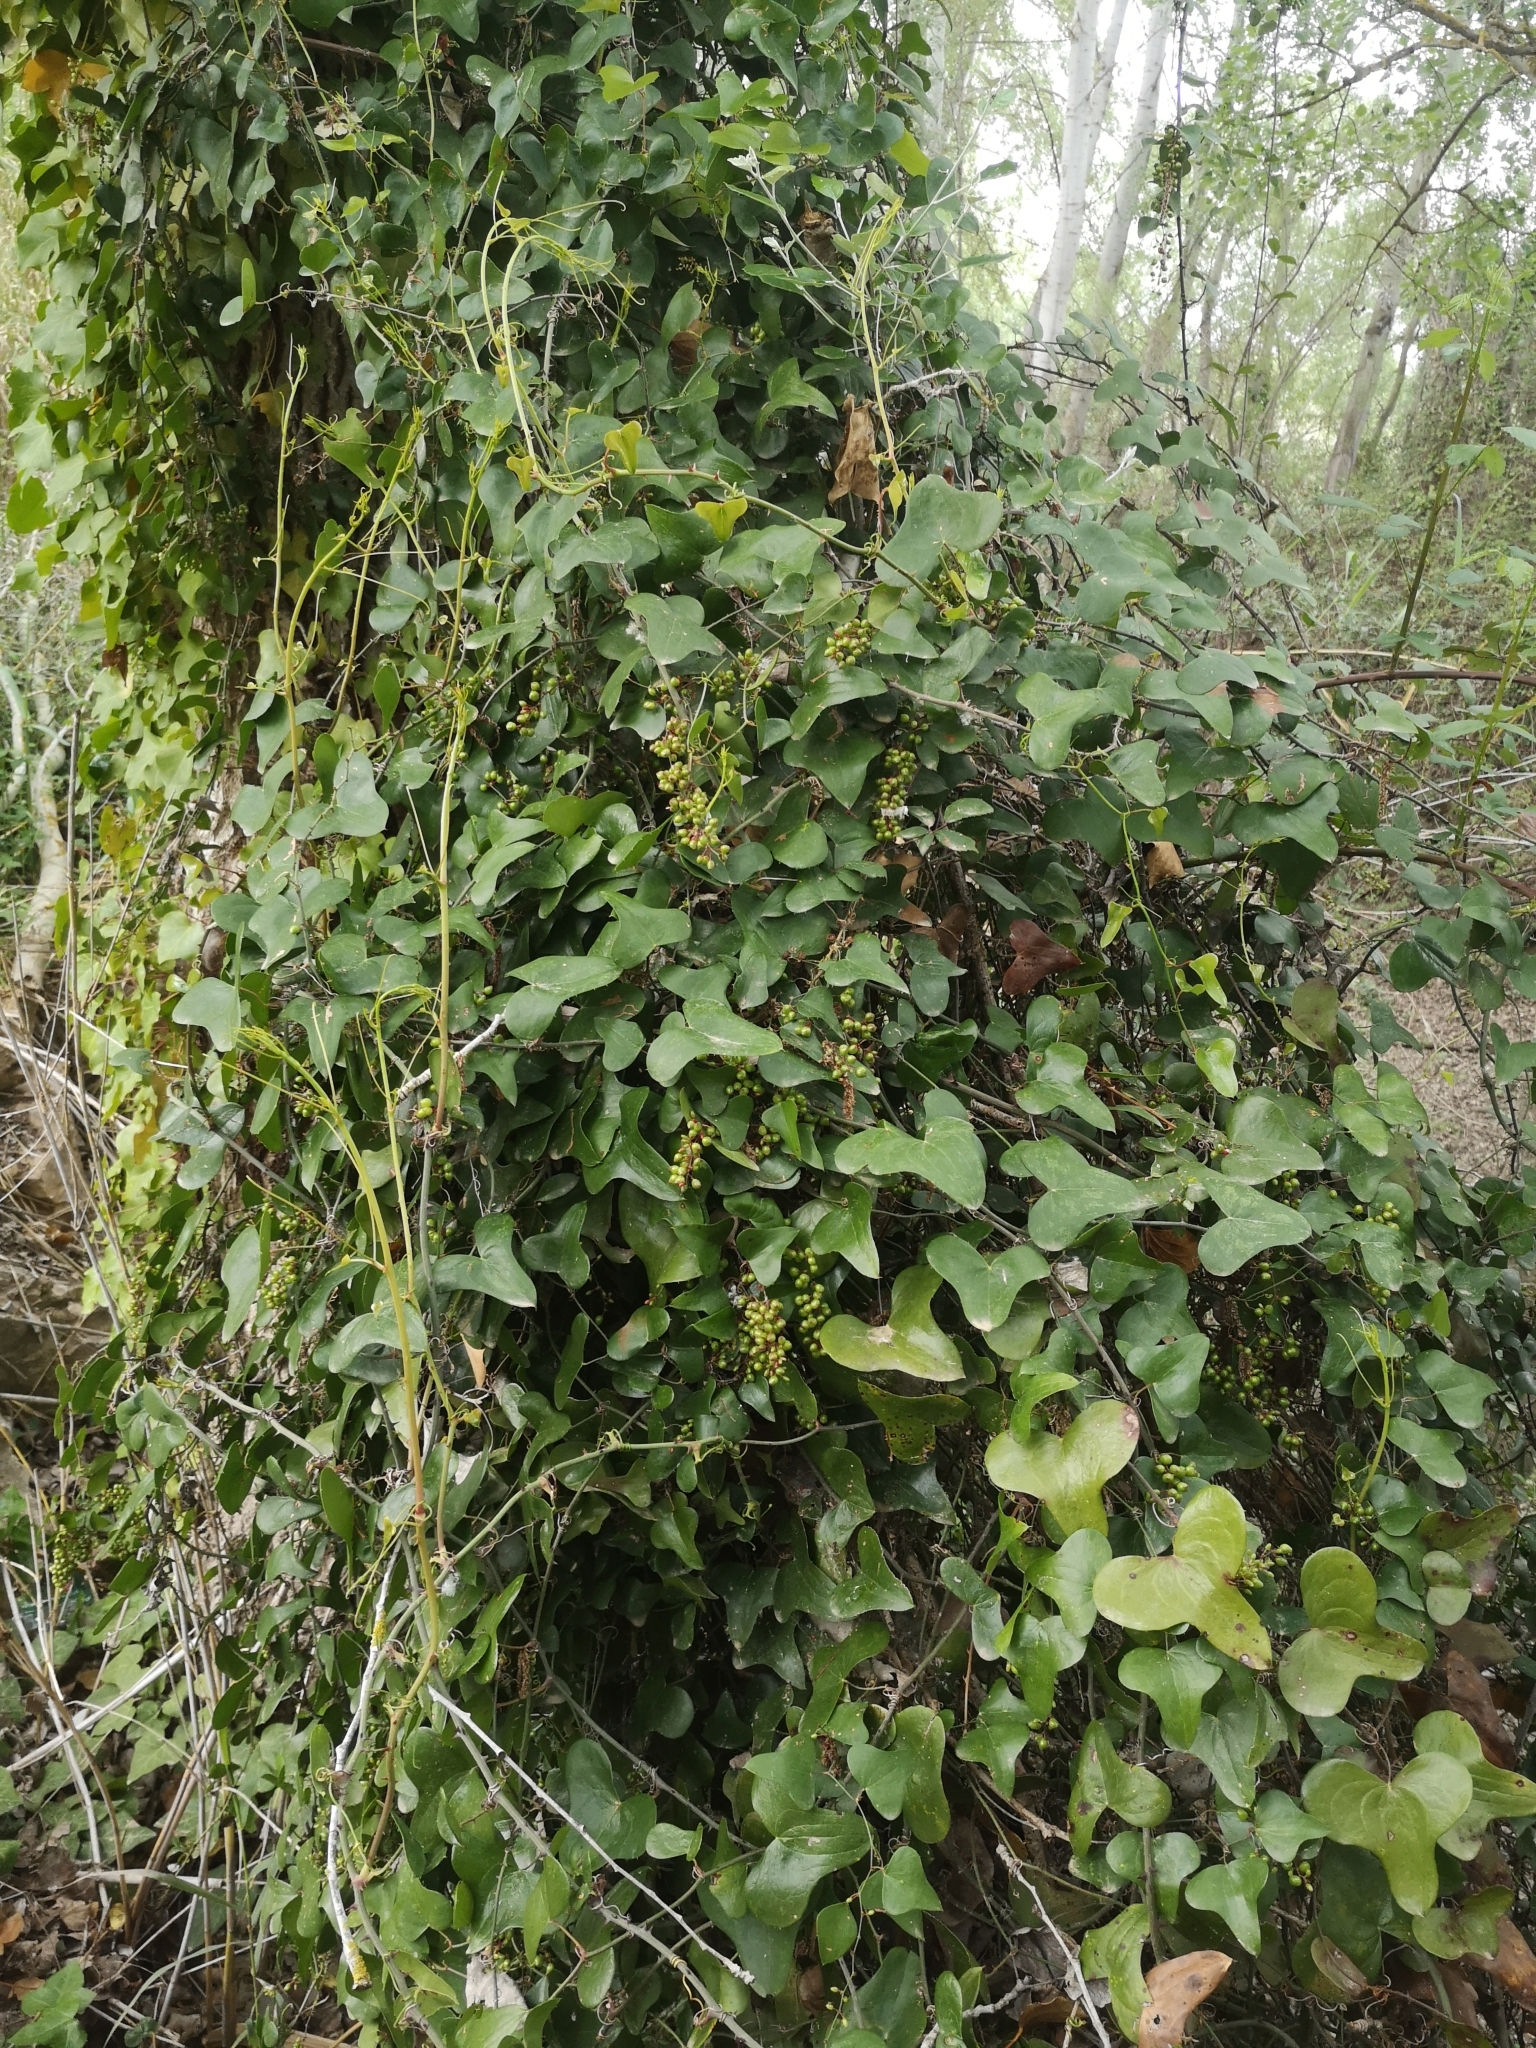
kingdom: Plantae
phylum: Tracheophyta
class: Liliopsida
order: Liliales
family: Smilacaceae
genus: Smilax
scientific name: Smilax aspera
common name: Common smilax
